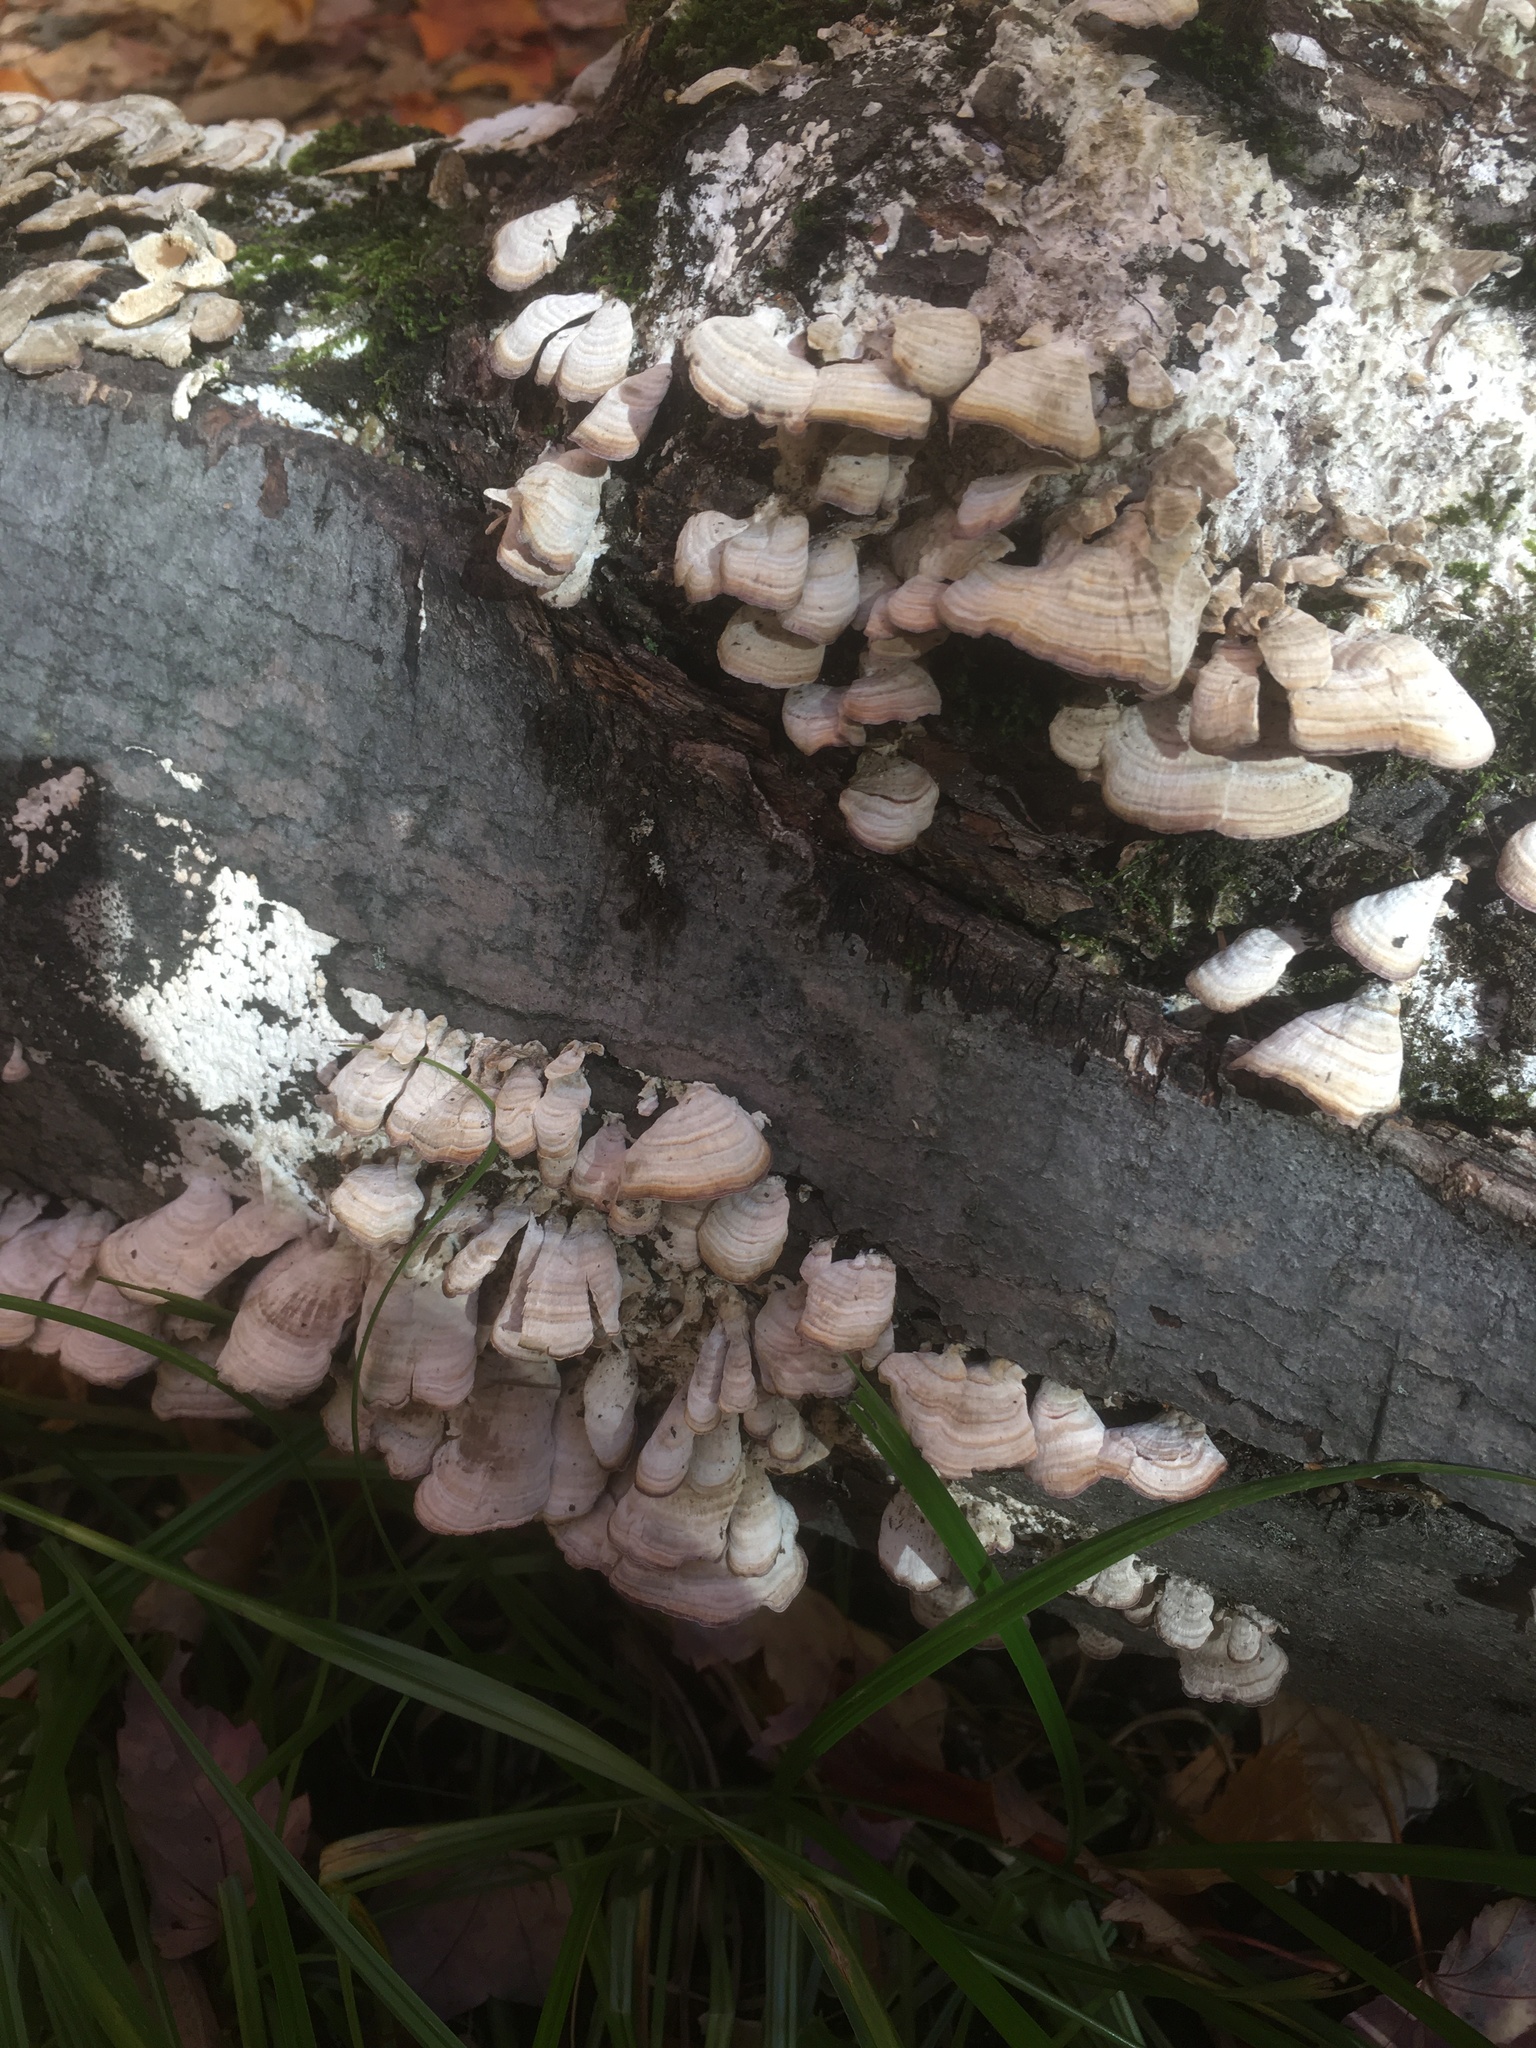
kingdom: Fungi
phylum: Basidiomycota
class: Agaricomycetes
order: Hymenochaetales
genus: Trichaptum
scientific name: Trichaptum biforme
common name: Violet-toothed polypore
